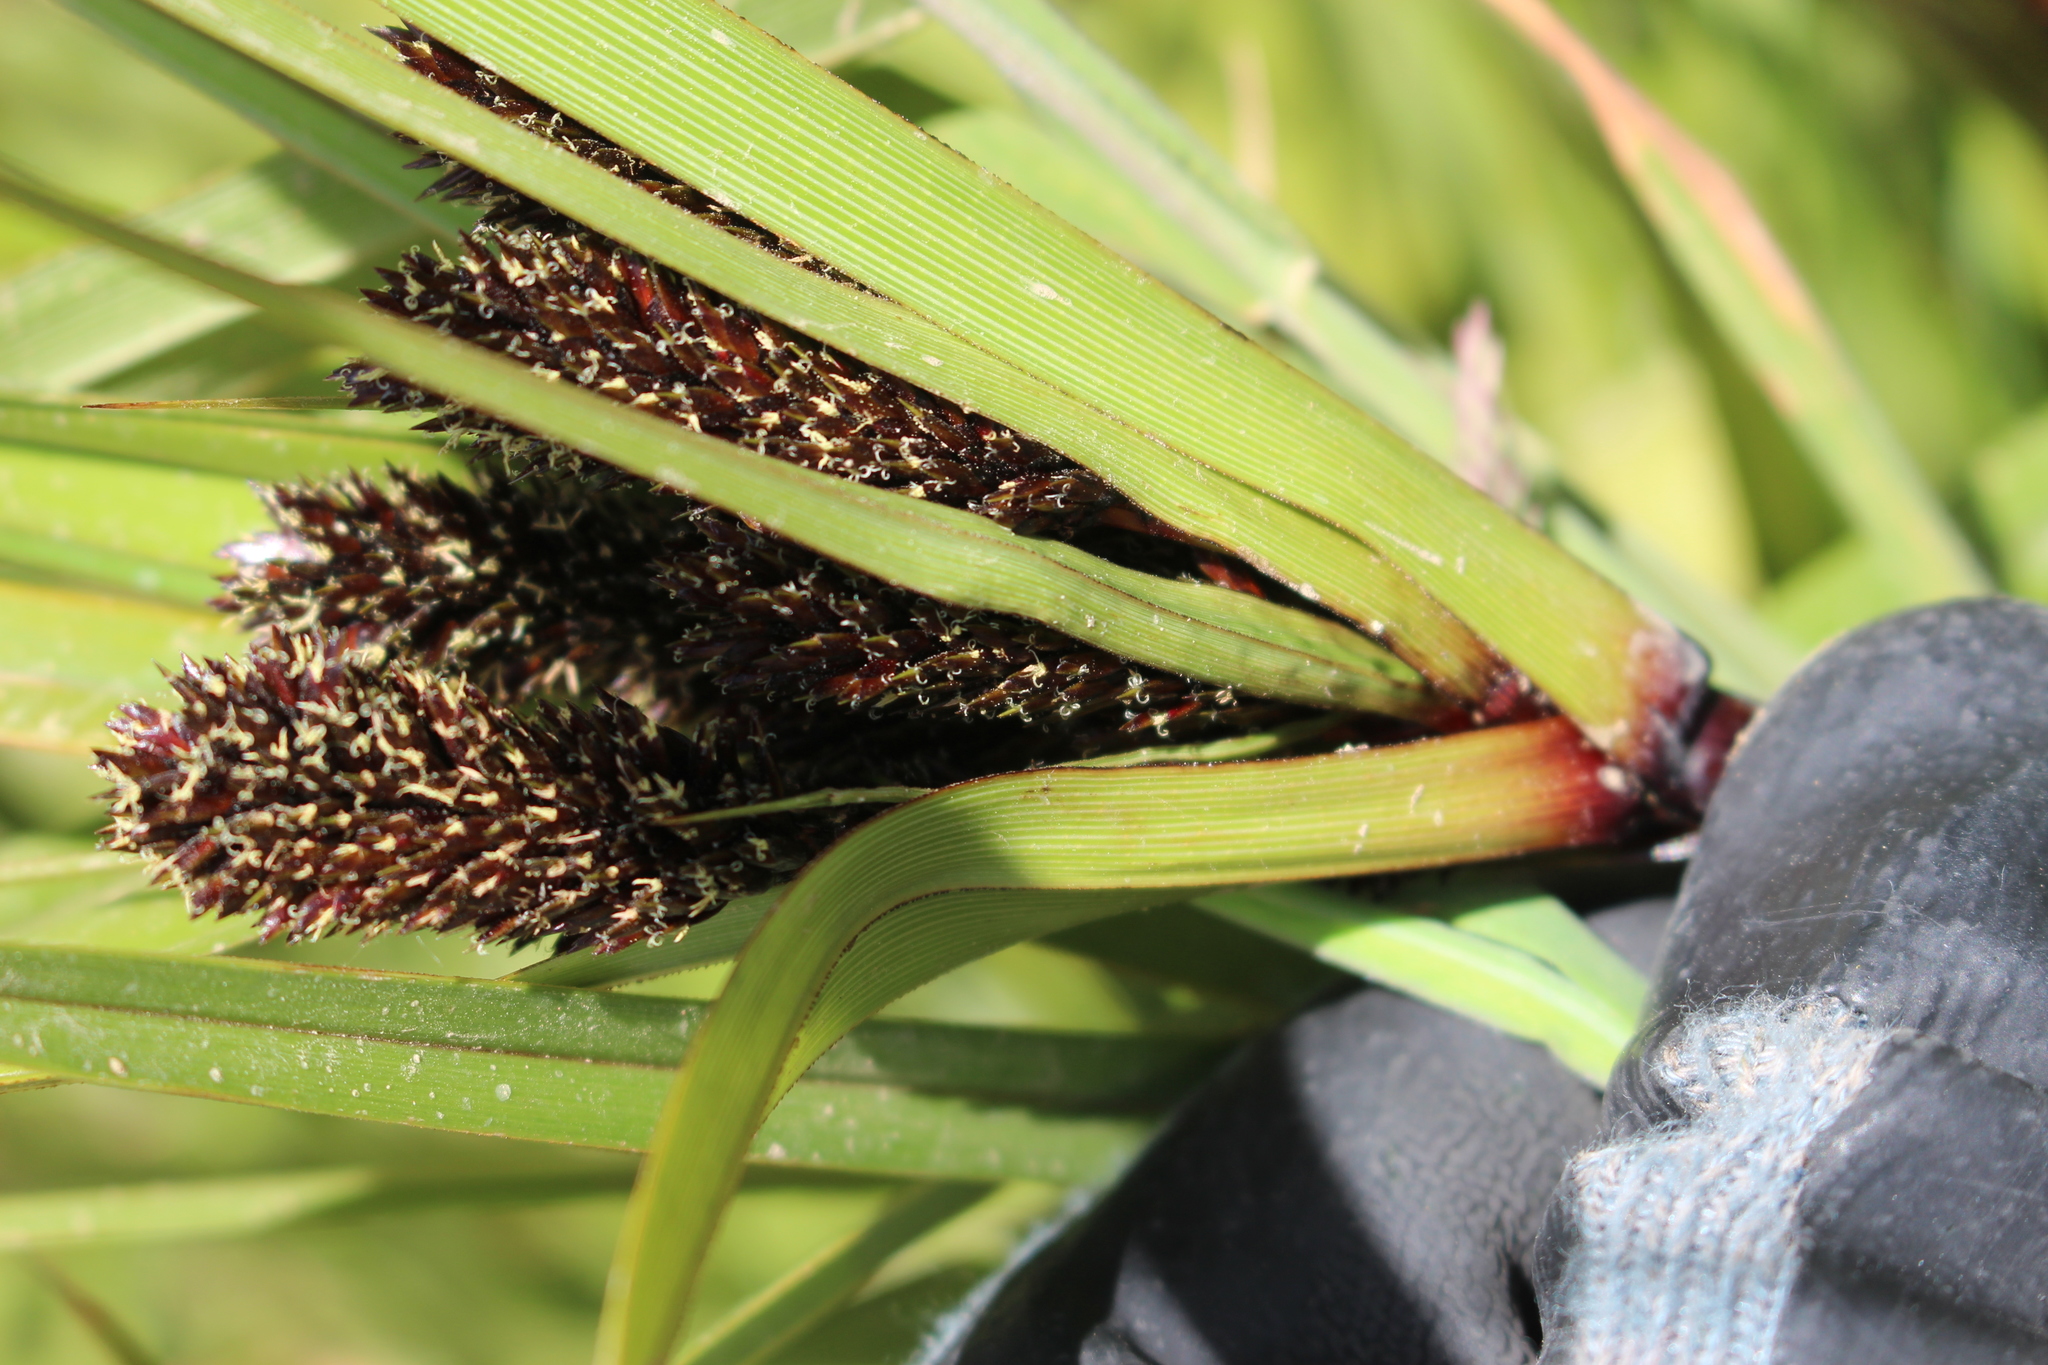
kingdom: Plantae
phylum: Tracheophyta
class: Liliopsida
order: Poales
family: Cyperaceae
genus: Cyperus
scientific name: Cyperus ustulatus
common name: Giant umbrella-sedge
